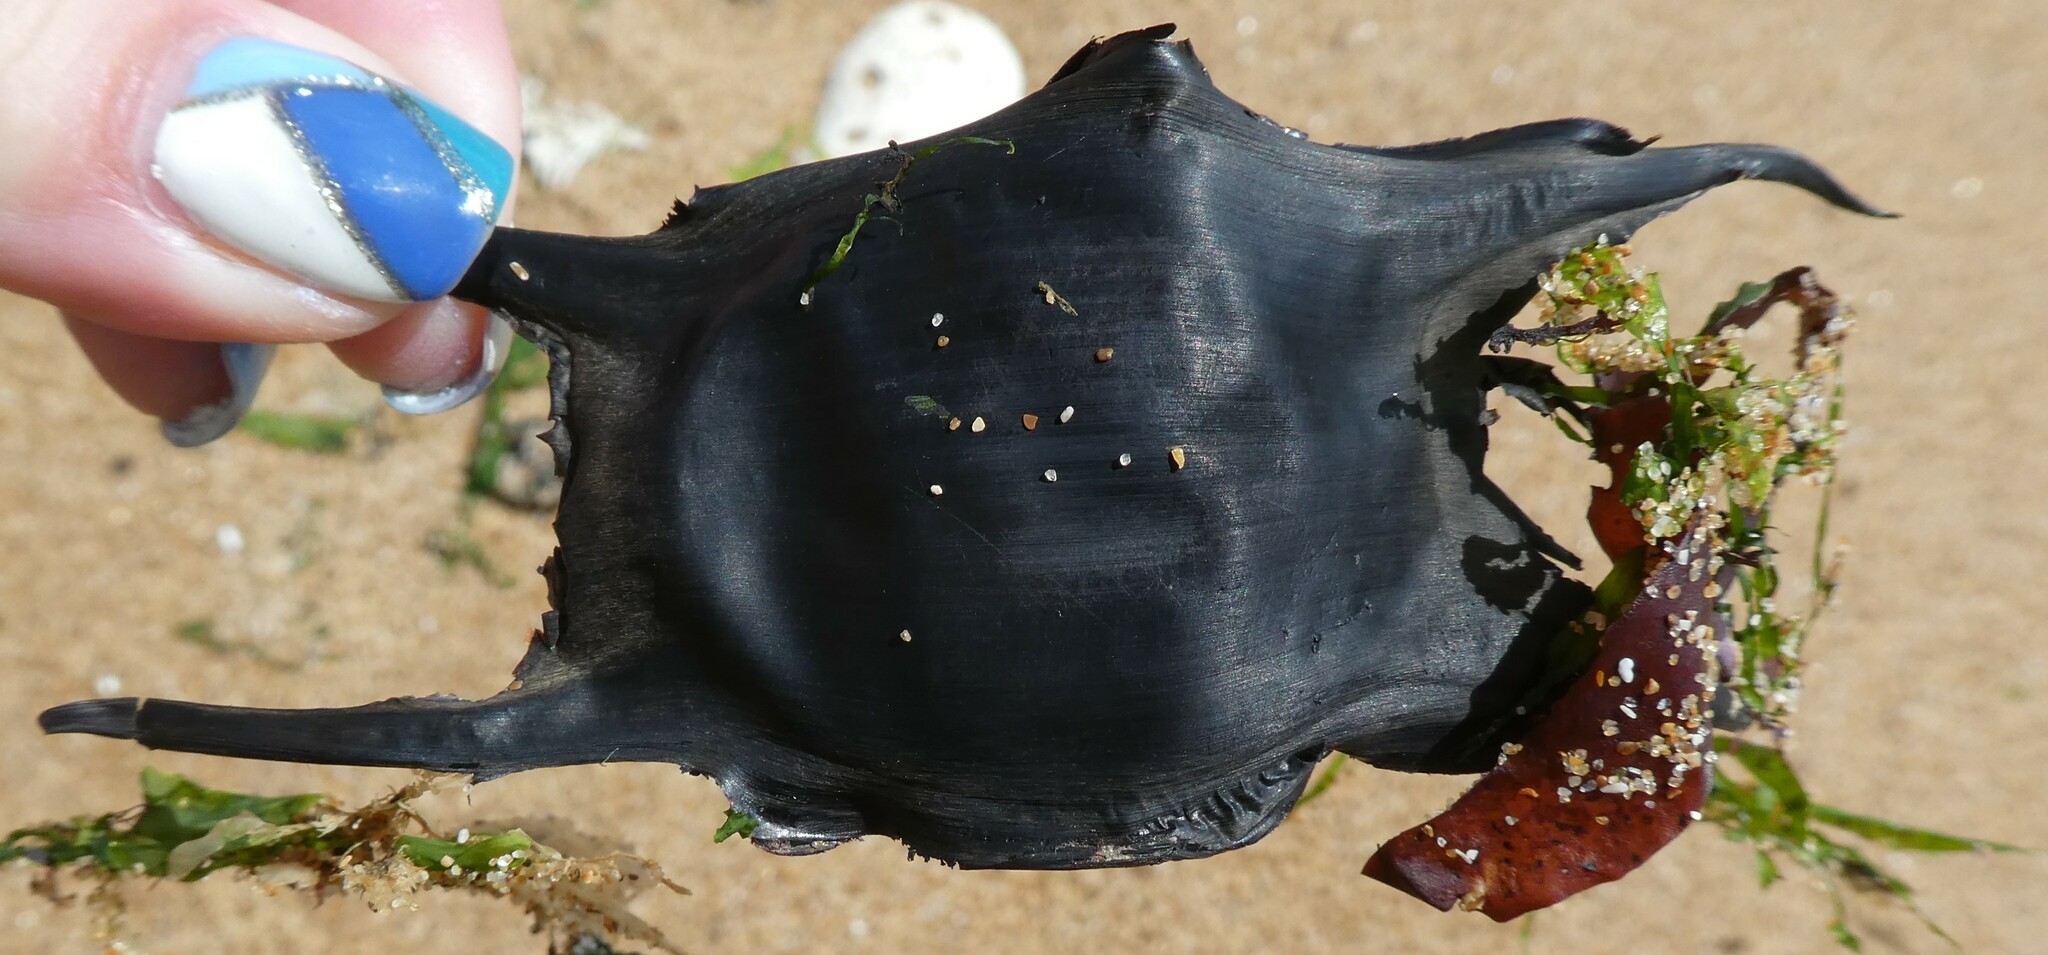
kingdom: Animalia
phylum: Chordata
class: Elasmobranchii
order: Rajiformes
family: Rajidae
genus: Raja
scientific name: Raja clavata
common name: Thornback ray
